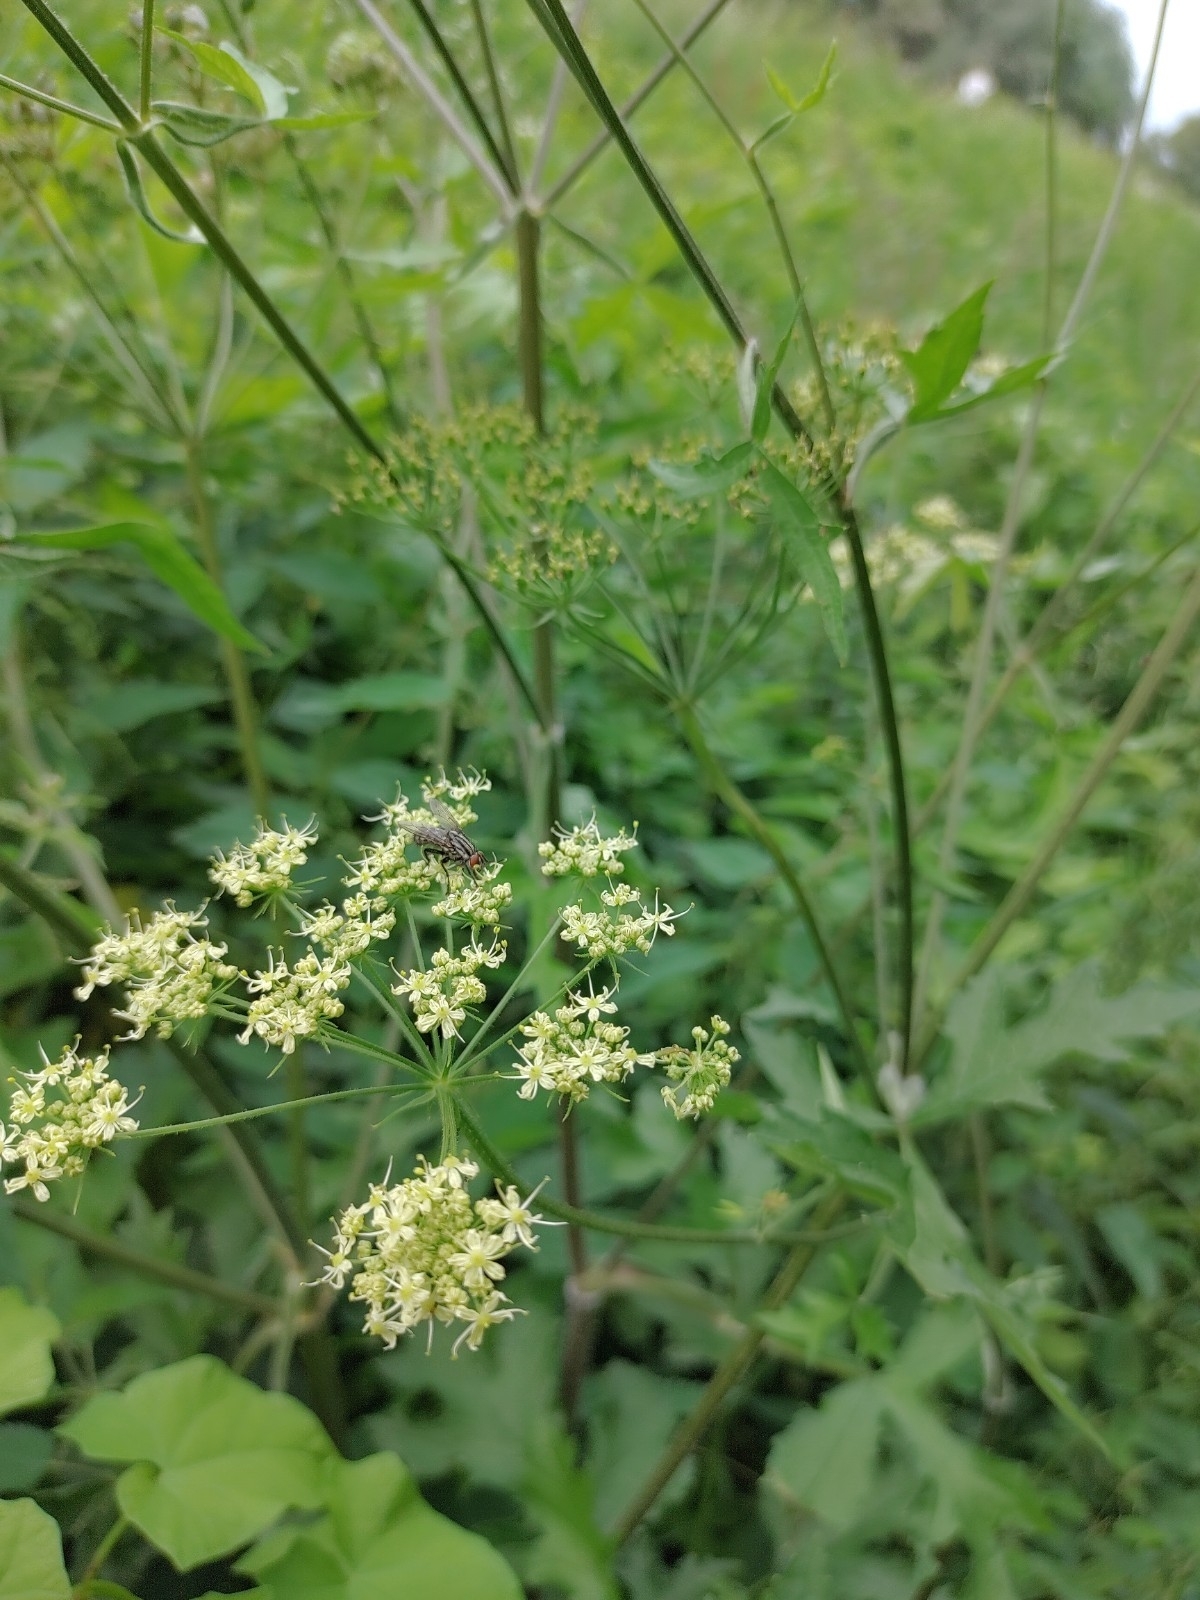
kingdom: Plantae
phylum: Tracheophyta
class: Magnoliopsida
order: Apiales
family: Apiaceae
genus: Heracleum
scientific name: Heracleum sphondylium
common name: Hogweed
